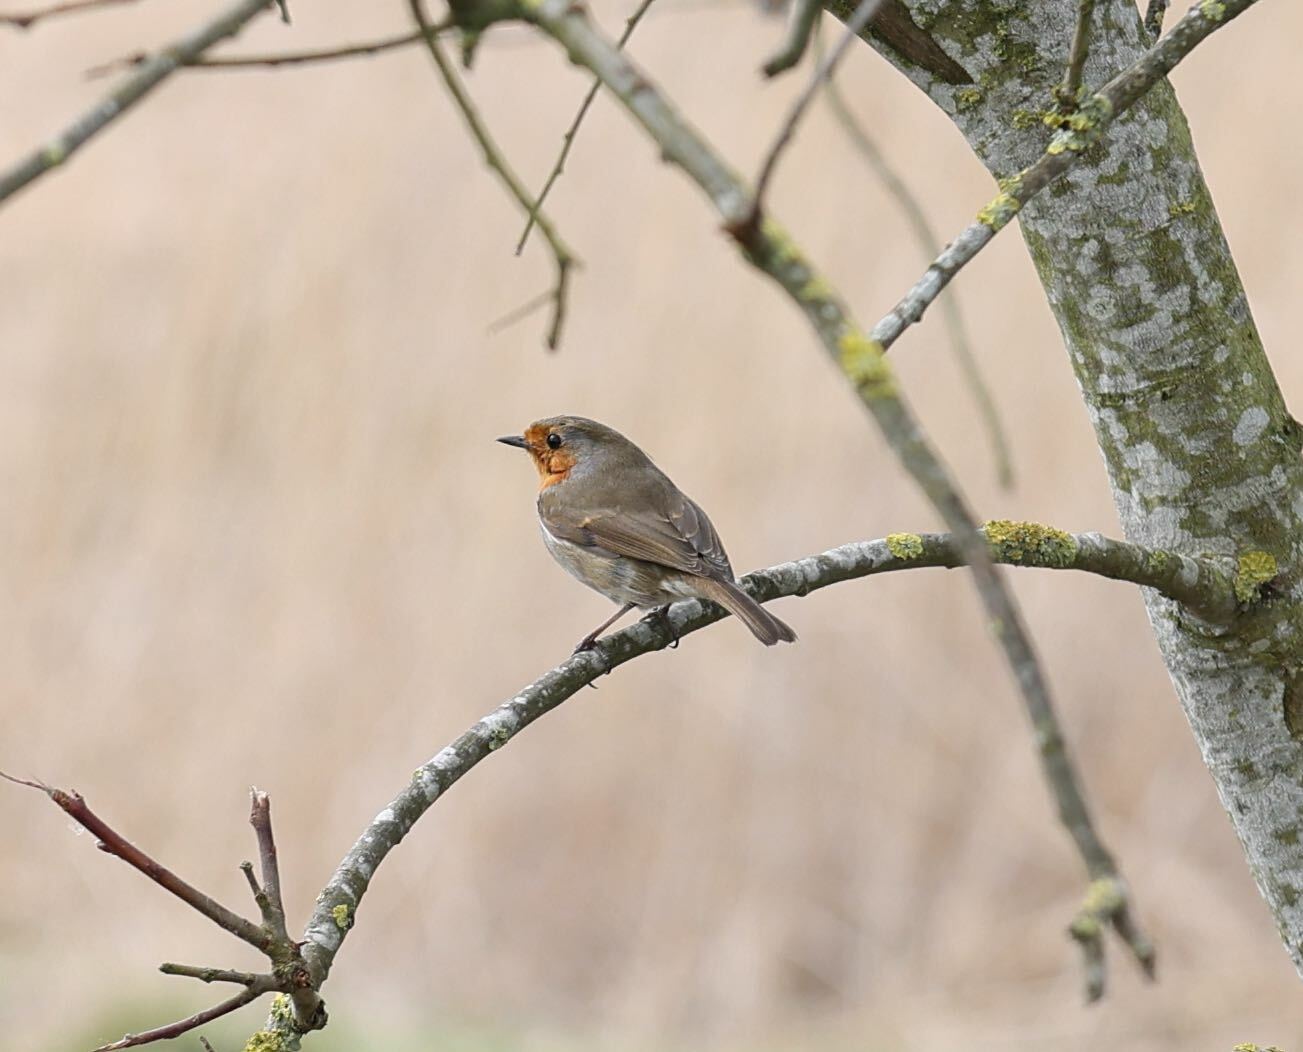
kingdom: Animalia
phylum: Chordata
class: Aves
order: Passeriformes
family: Muscicapidae
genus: Erithacus
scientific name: Erithacus rubecula
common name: European robin
